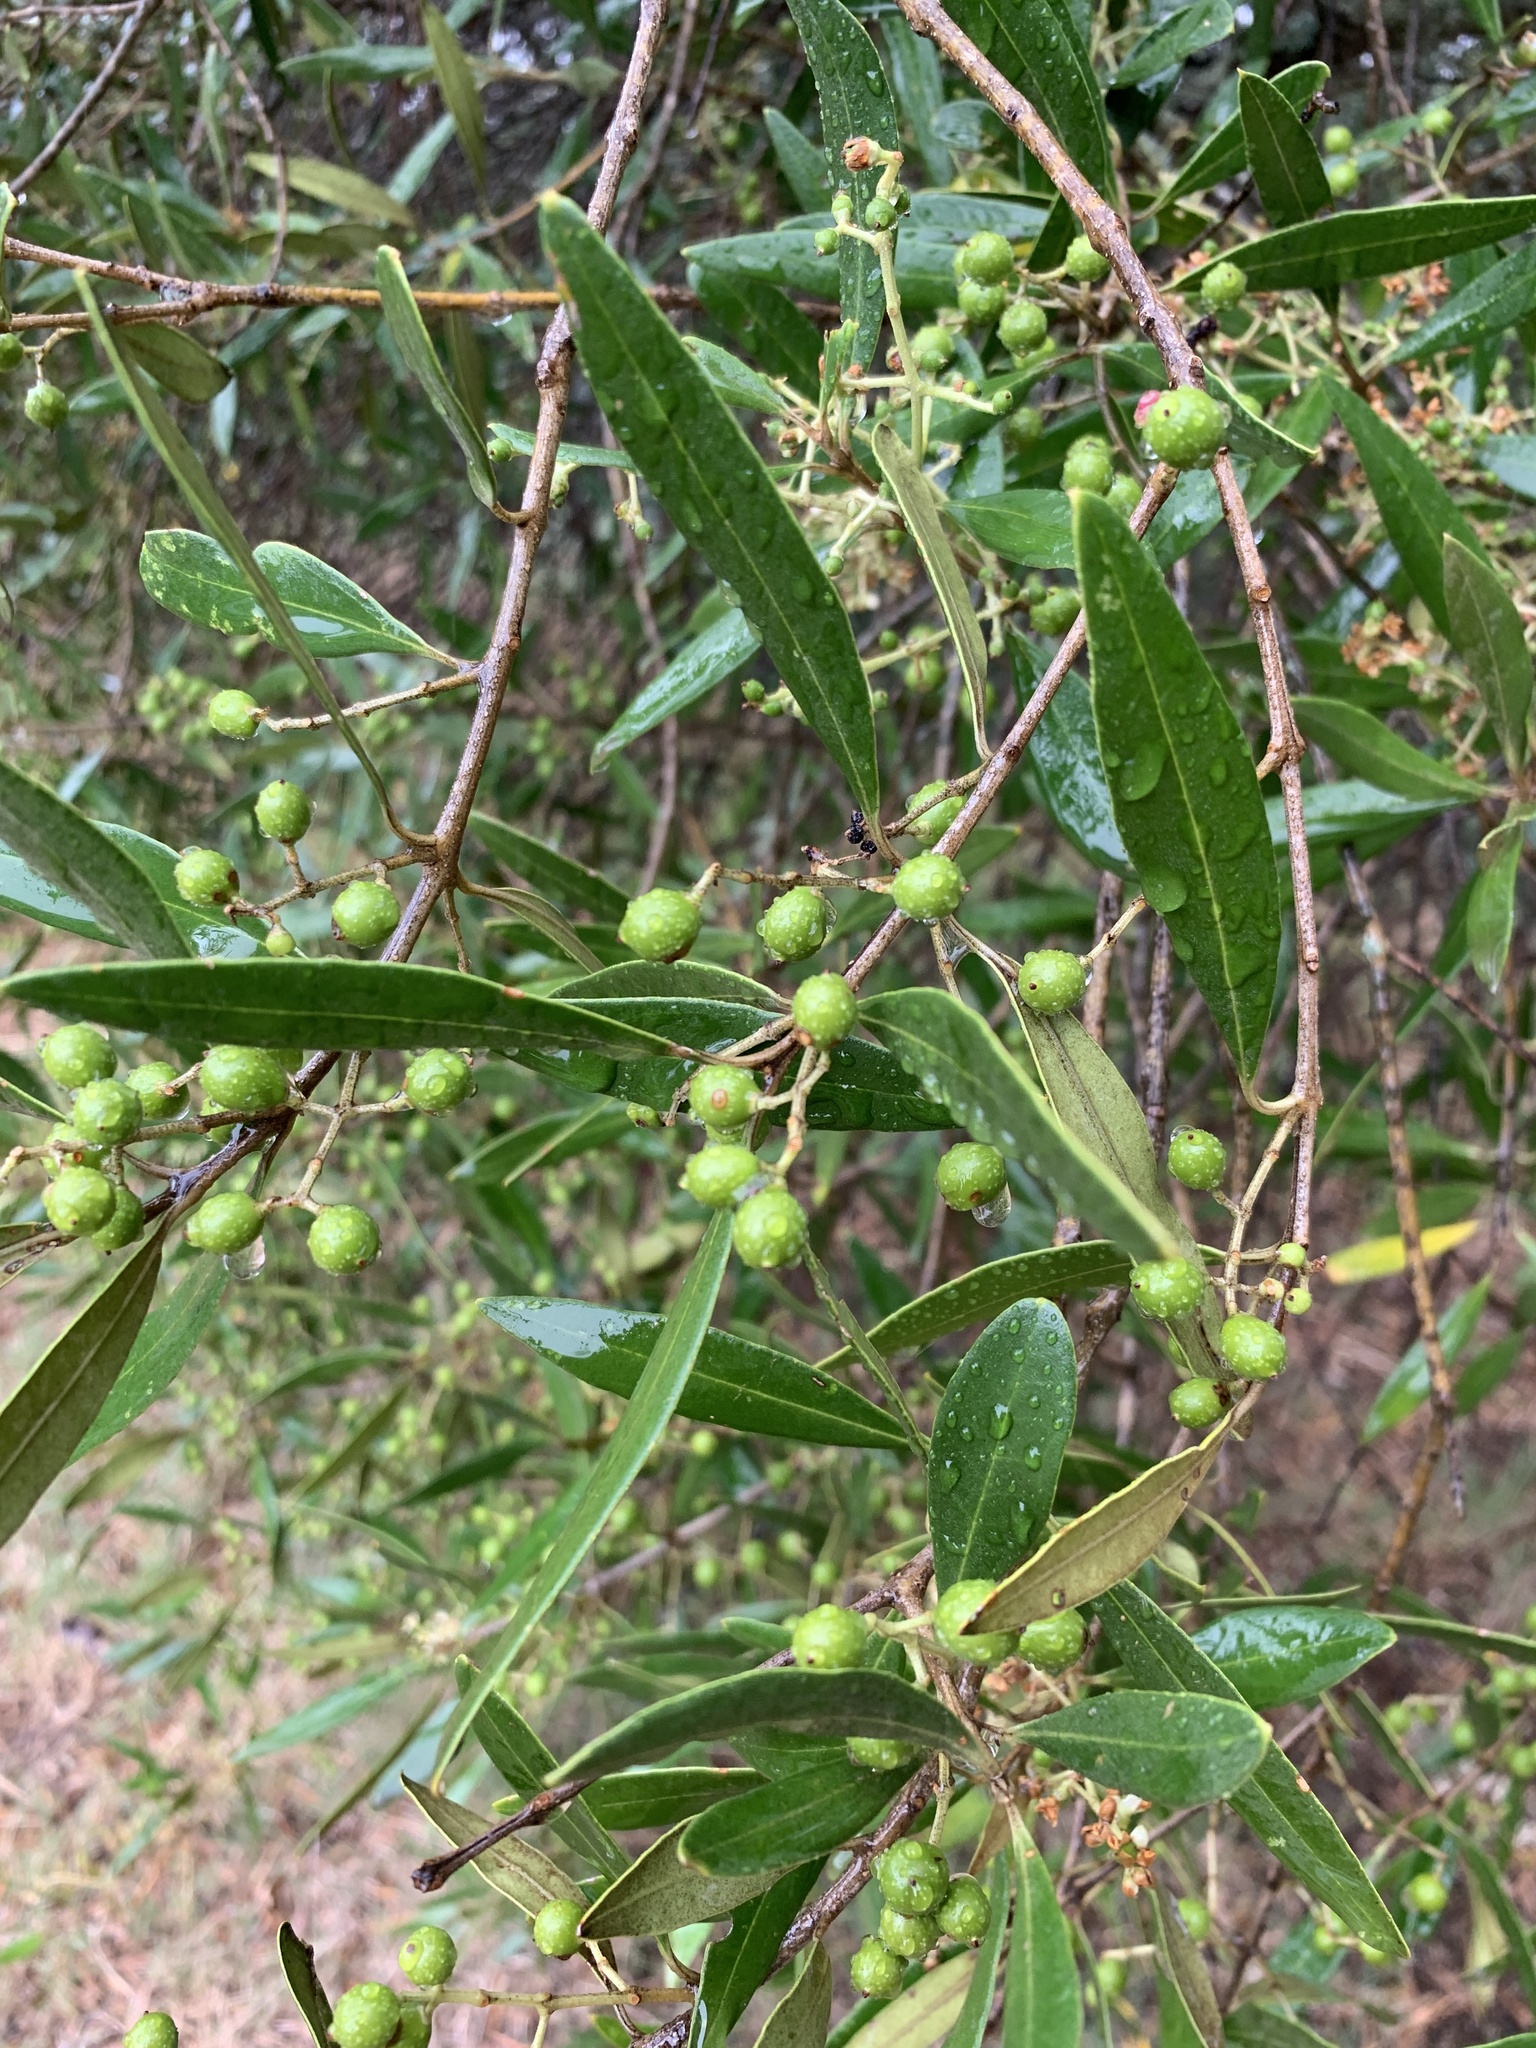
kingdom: Plantae
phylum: Tracheophyta
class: Magnoliopsida
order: Lamiales
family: Oleaceae
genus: Olea
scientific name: Olea europaea
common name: Olive
